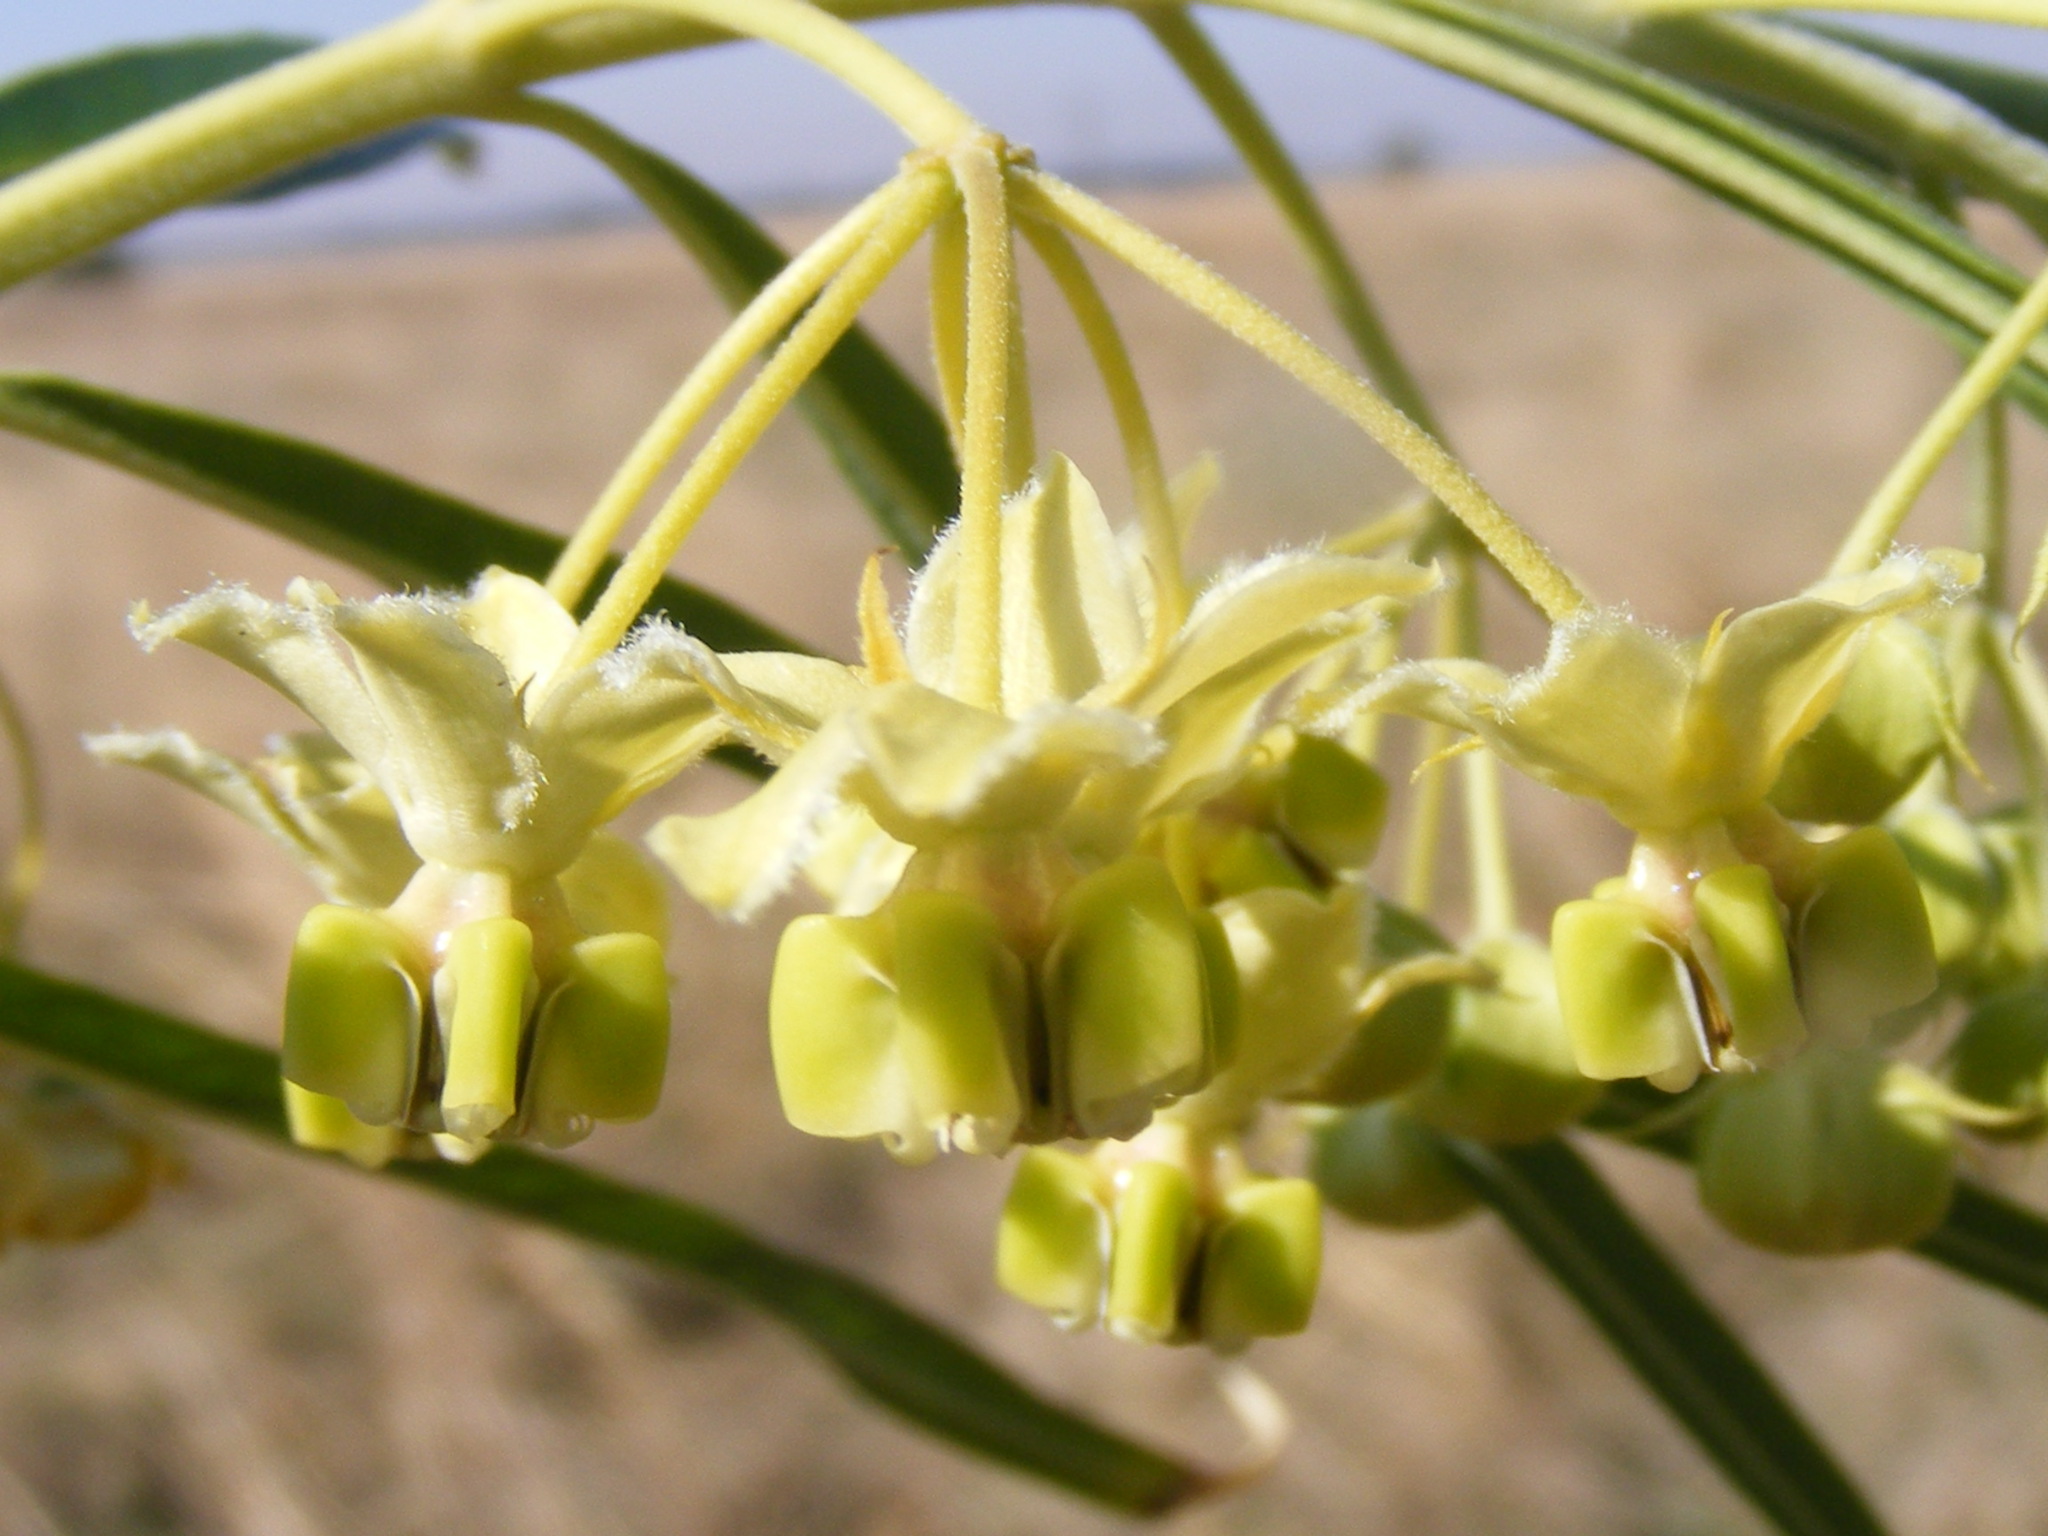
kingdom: Plantae
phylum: Tracheophyta
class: Magnoliopsida
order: Gentianales
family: Apocynaceae
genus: Gomphocarpus
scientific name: Gomphocarpus fruticosus
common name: Milkweed
